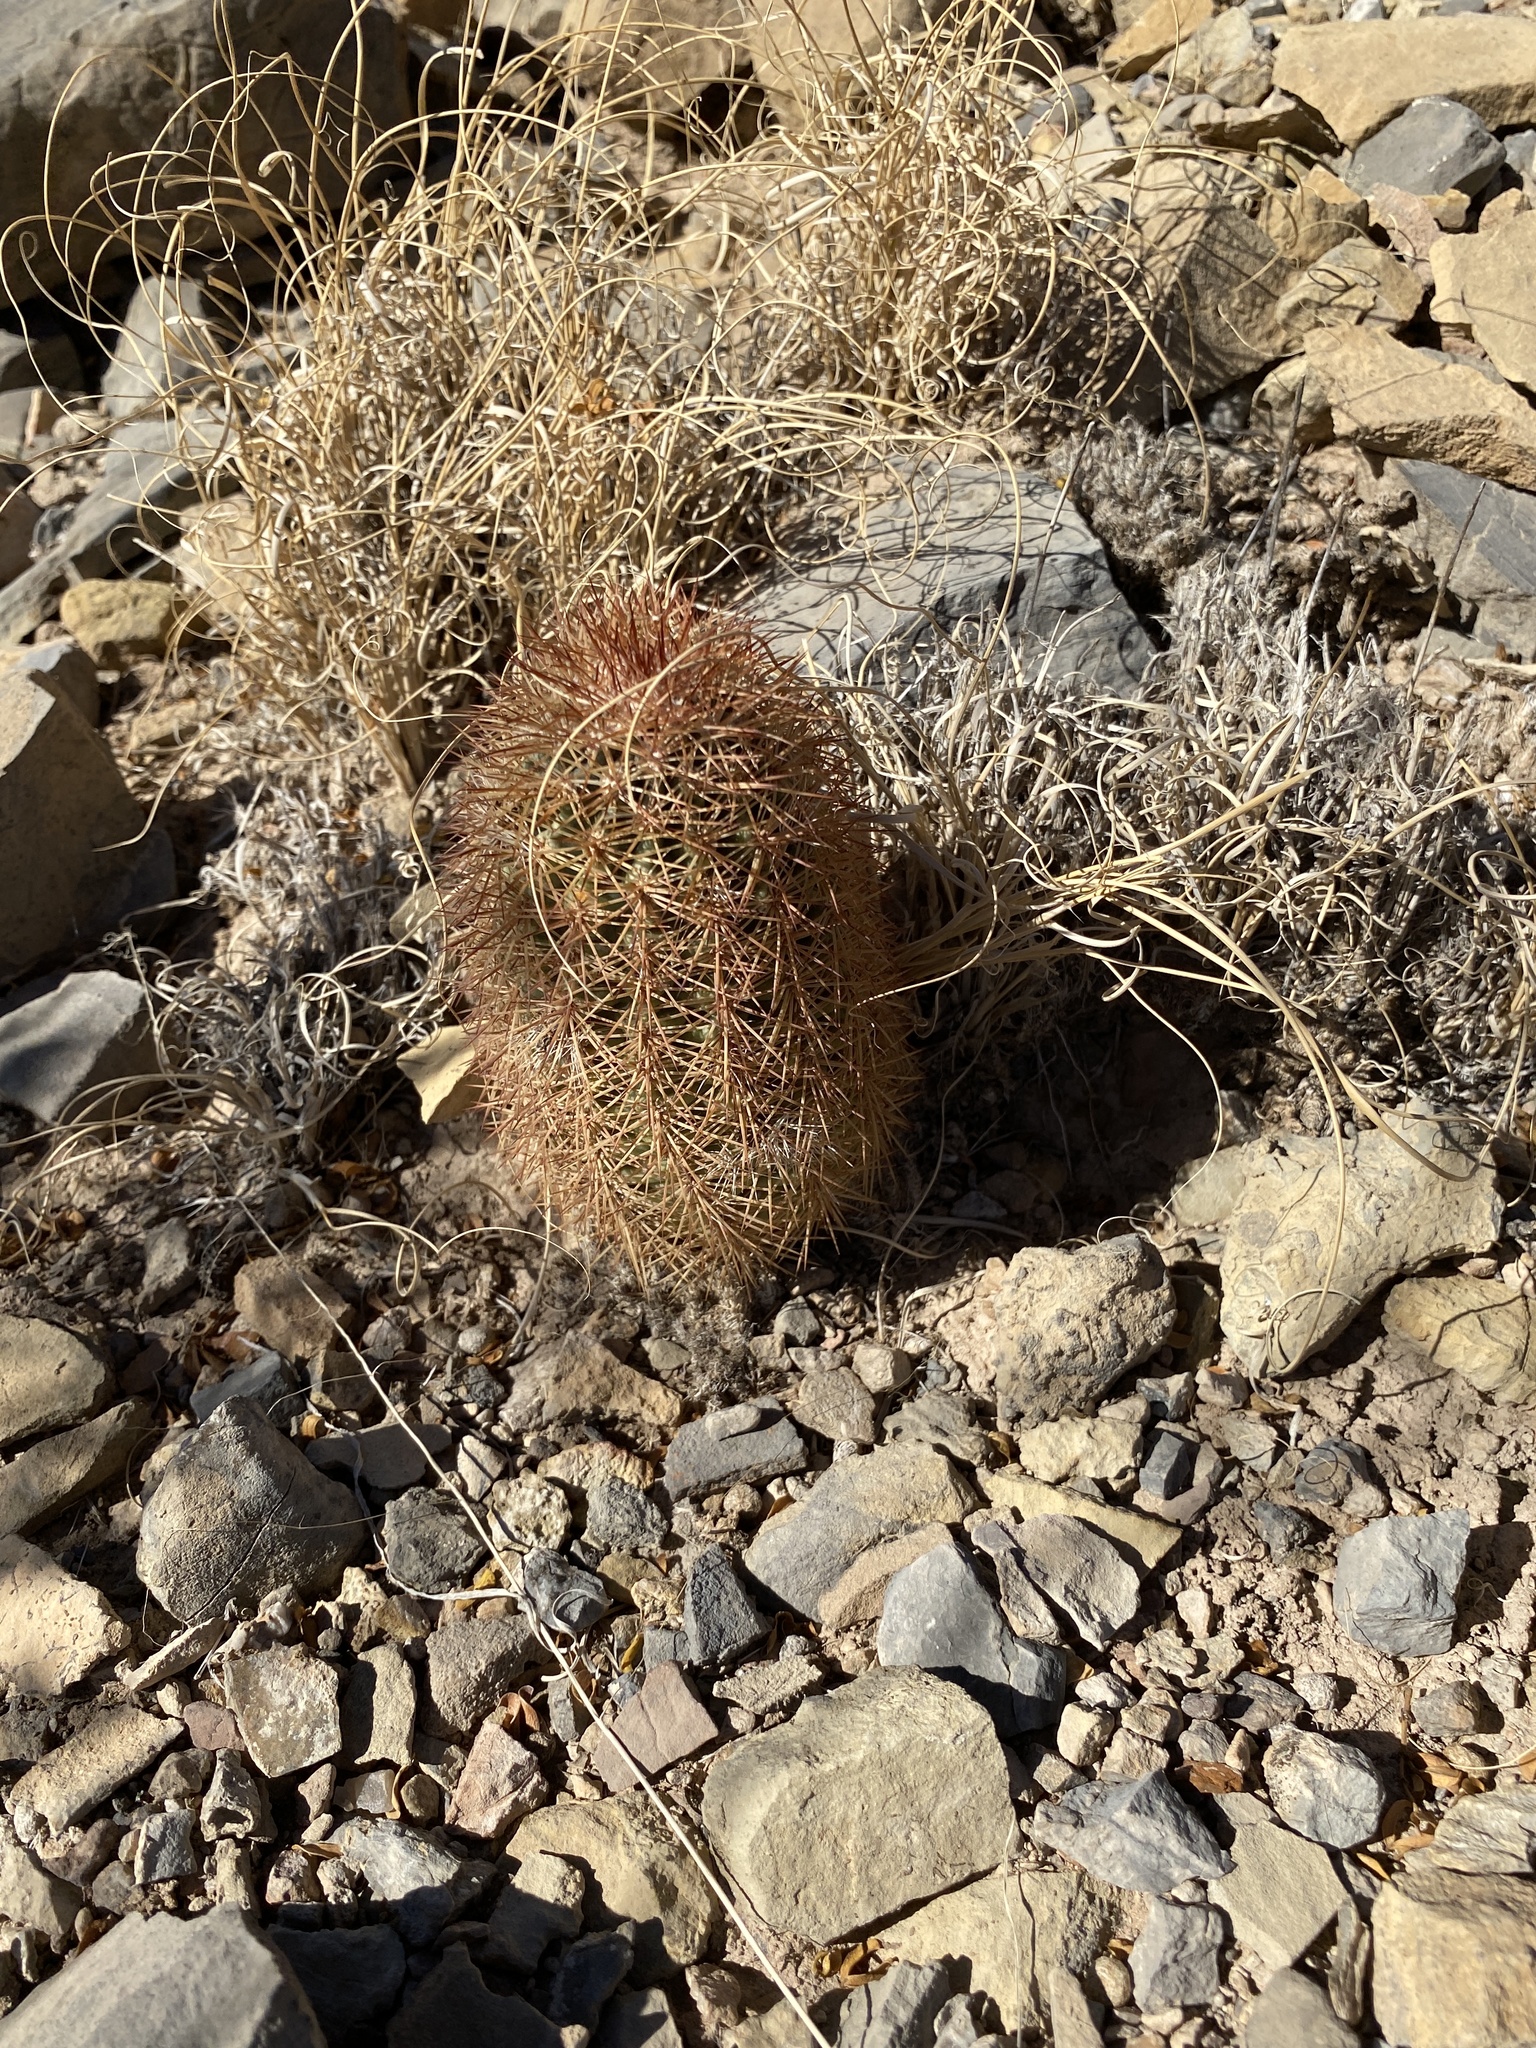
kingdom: Plantae
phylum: Tracheophyta
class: Magnoliopsida
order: Caryophyllales
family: Cactaceae
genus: Echinocereus
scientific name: Echinocereus dasyacanthus
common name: Spiny hedgehog cactus
